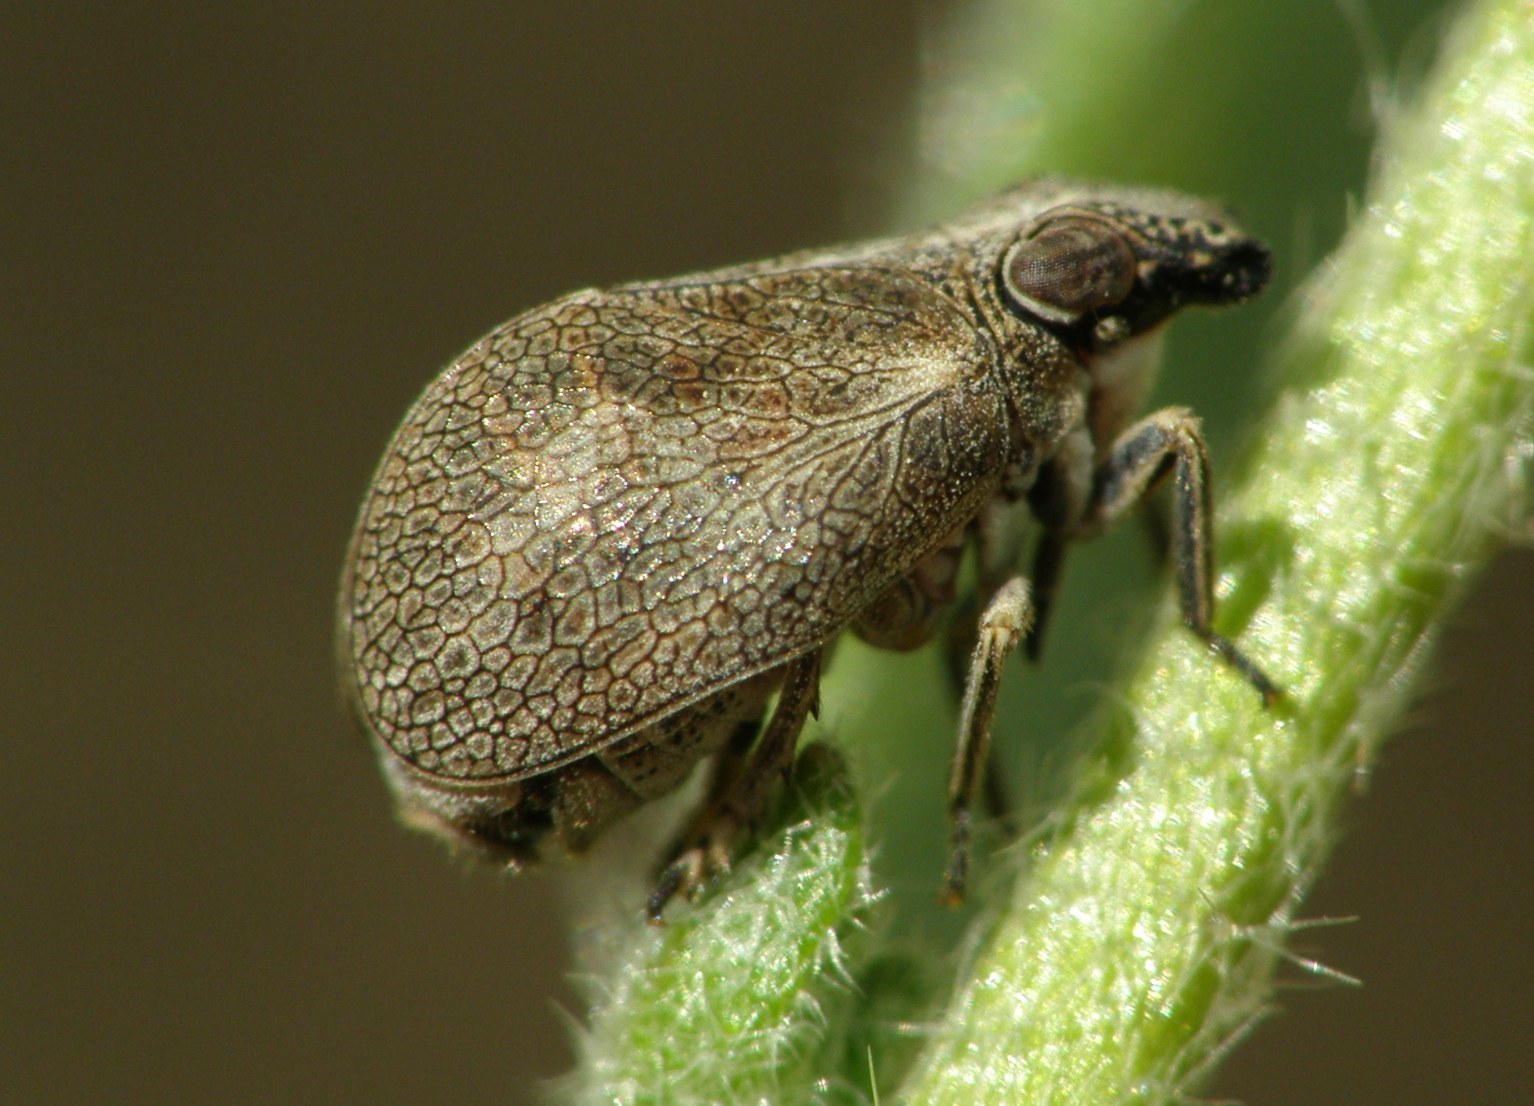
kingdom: Animalia
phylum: Arthropoda
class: Insecta
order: Hemiptera
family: Issidae
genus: Bootheca
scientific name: Bootheca taurus
